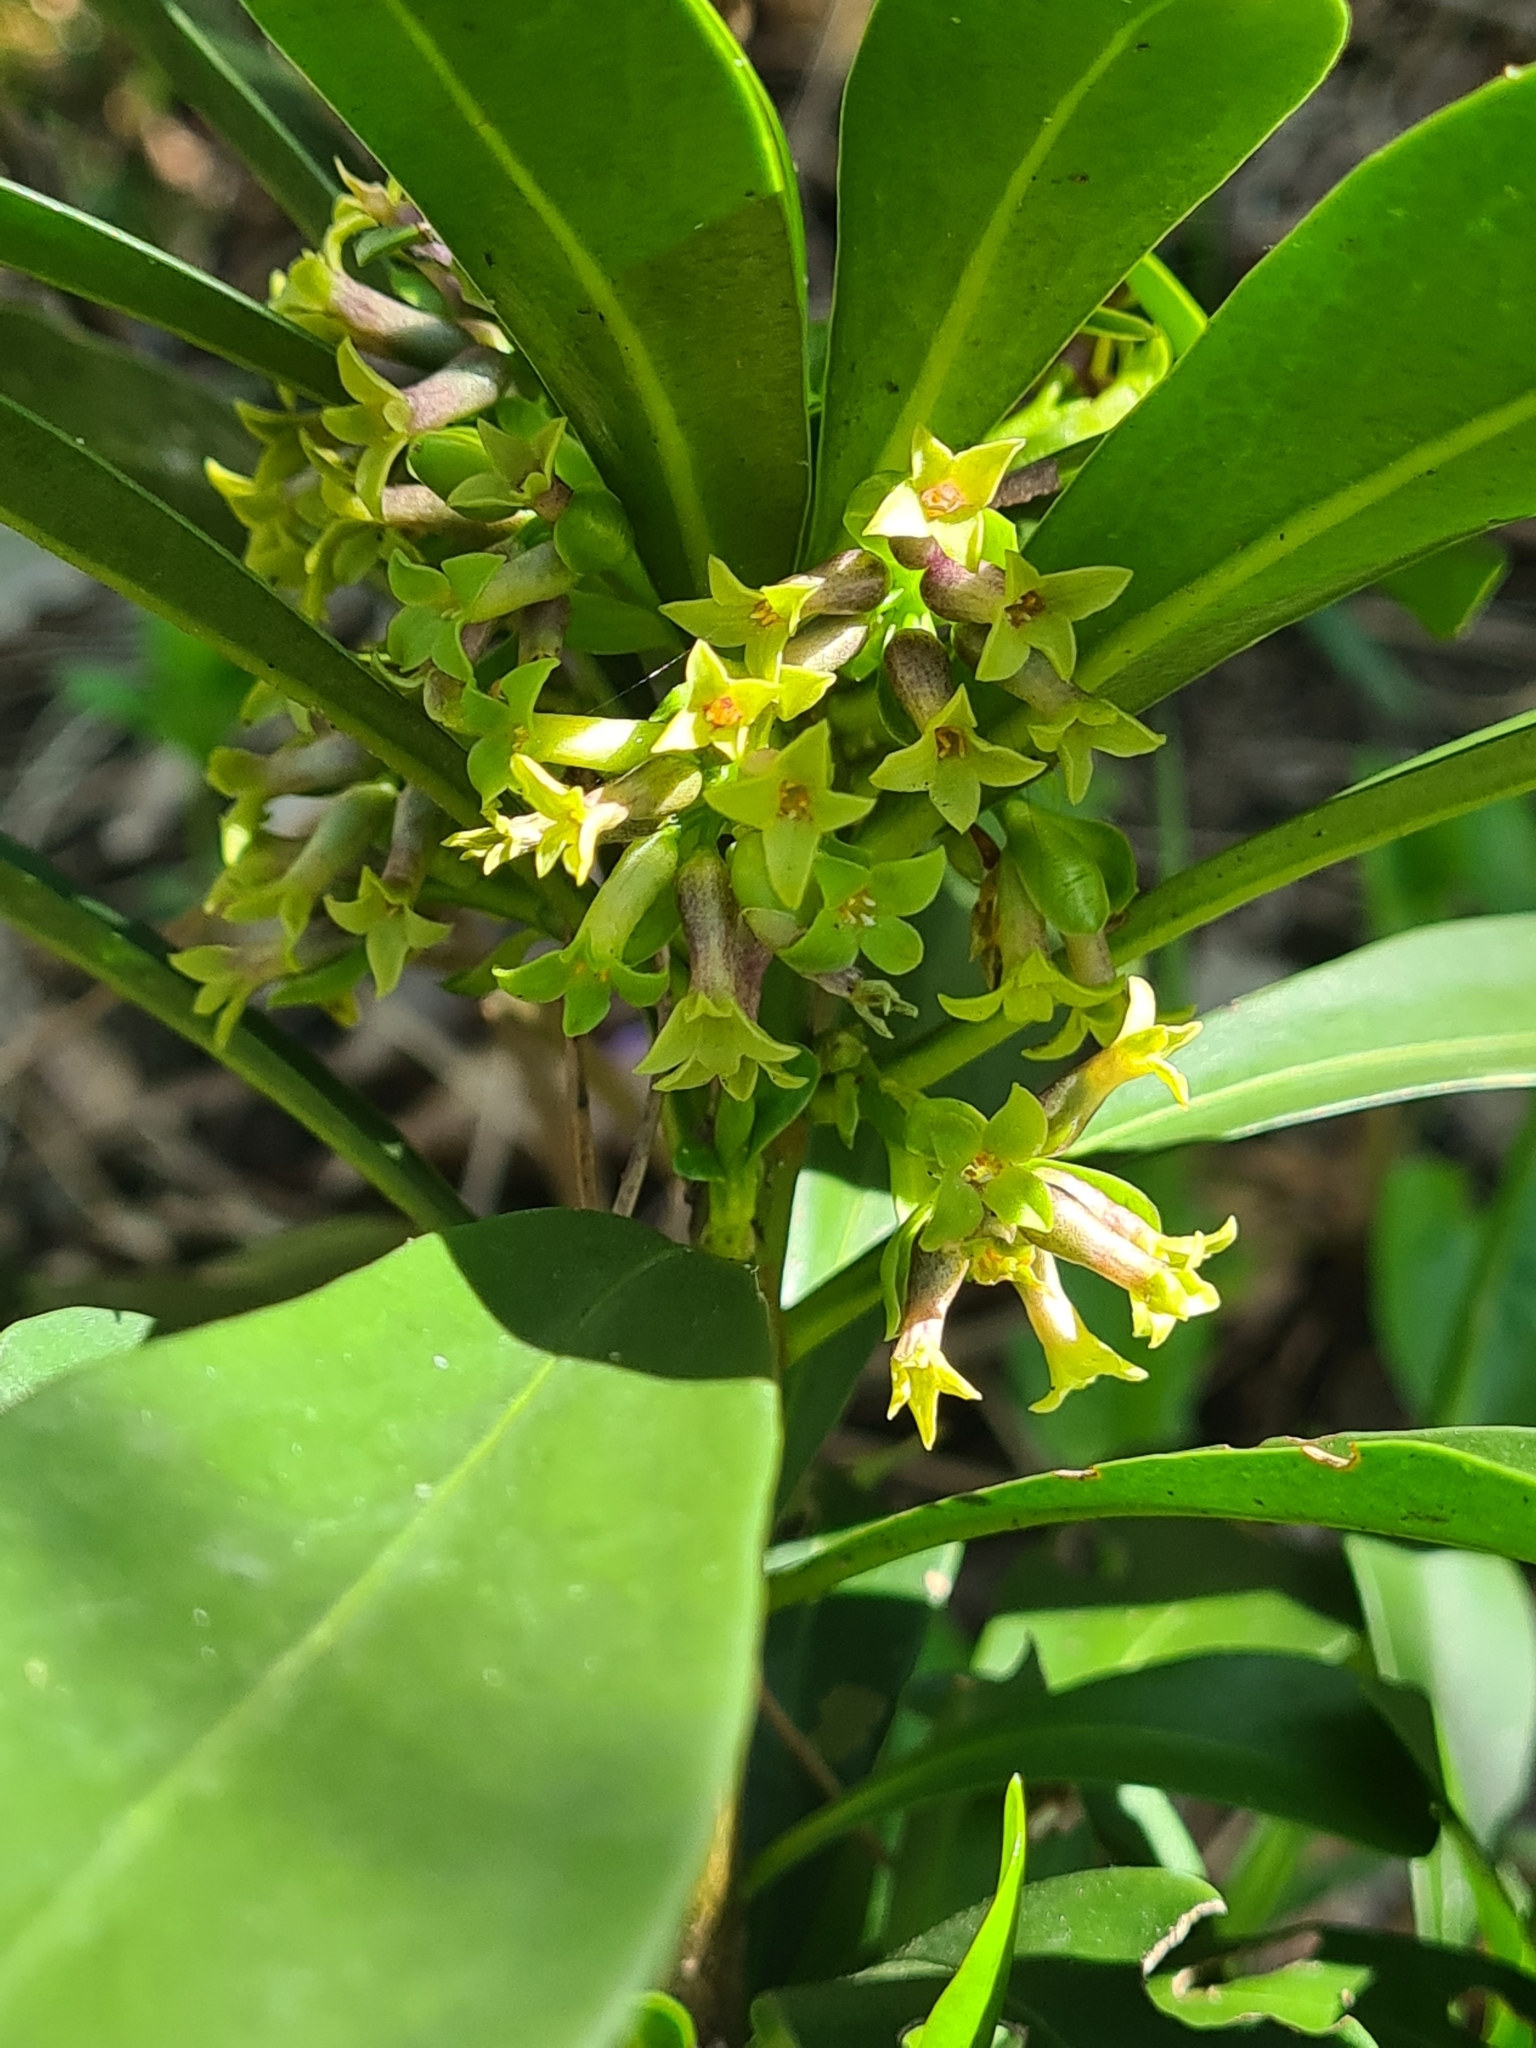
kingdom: Plantae
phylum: Tracheophyta
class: Magnoliopsida
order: Malvales
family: Thymelaeaceae
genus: Daphne
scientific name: Daphne laureola
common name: Spurge-laurel
